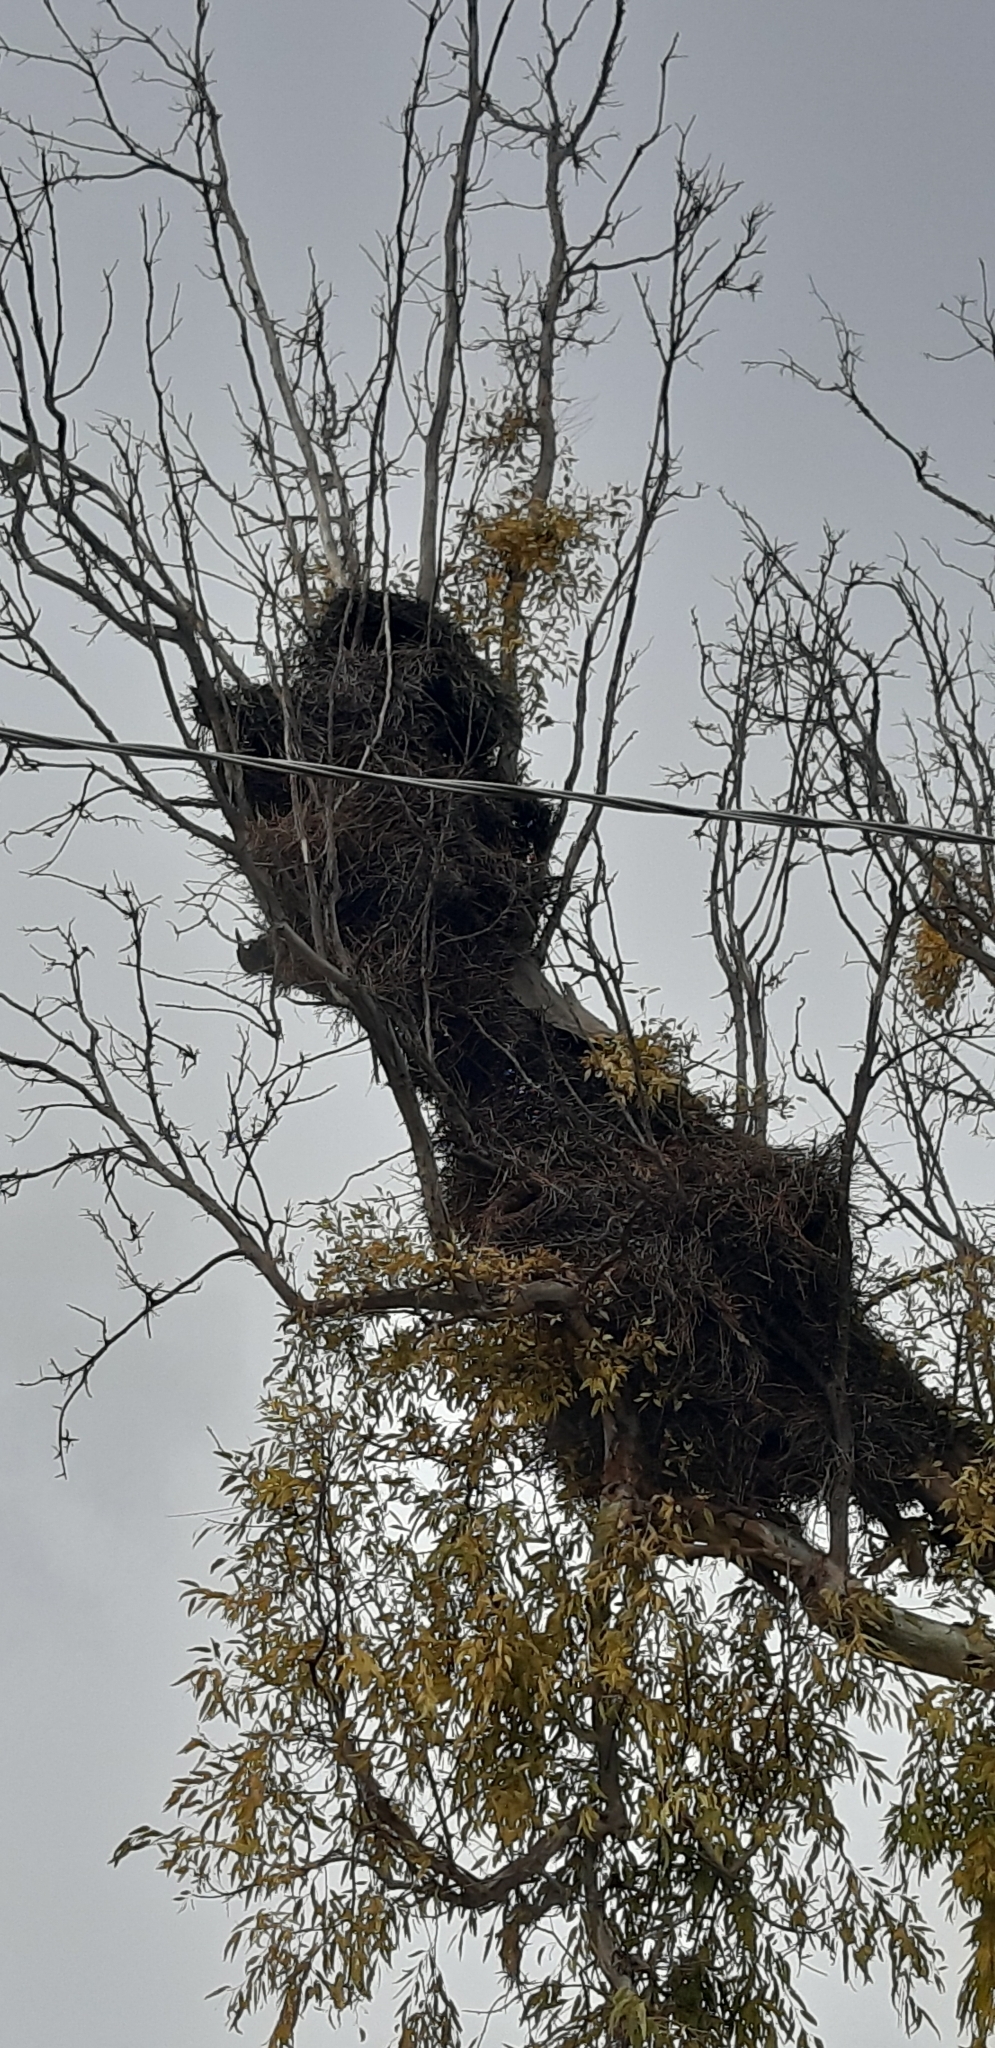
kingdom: Animalia
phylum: Chordata
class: Aves
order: Psittaciformes
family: Psittacidae
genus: Myiopsitta
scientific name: Myiopsitta monachus
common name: Monk parakeet
